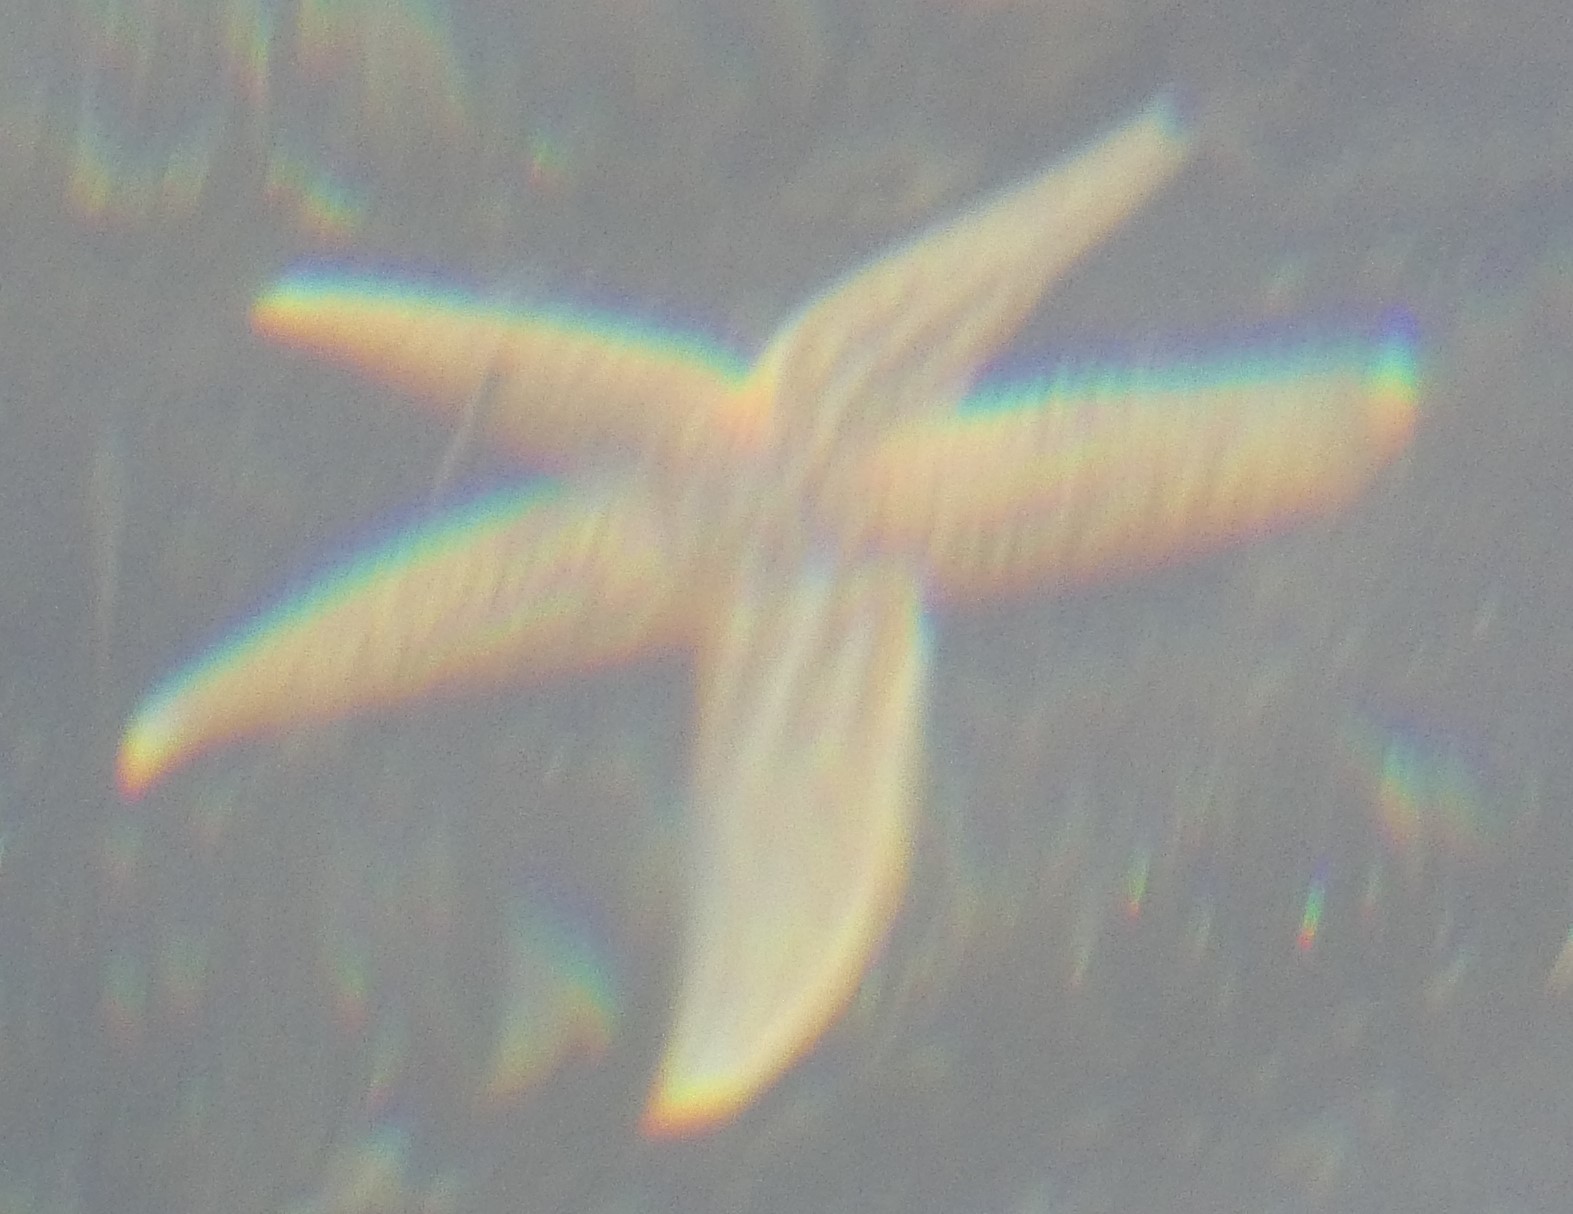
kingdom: Animalia
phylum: Echinodermata
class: Asteroidea
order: Forcipulatida
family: Asteriidae
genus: Asterias
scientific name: Asterias rubens
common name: Common starfish
